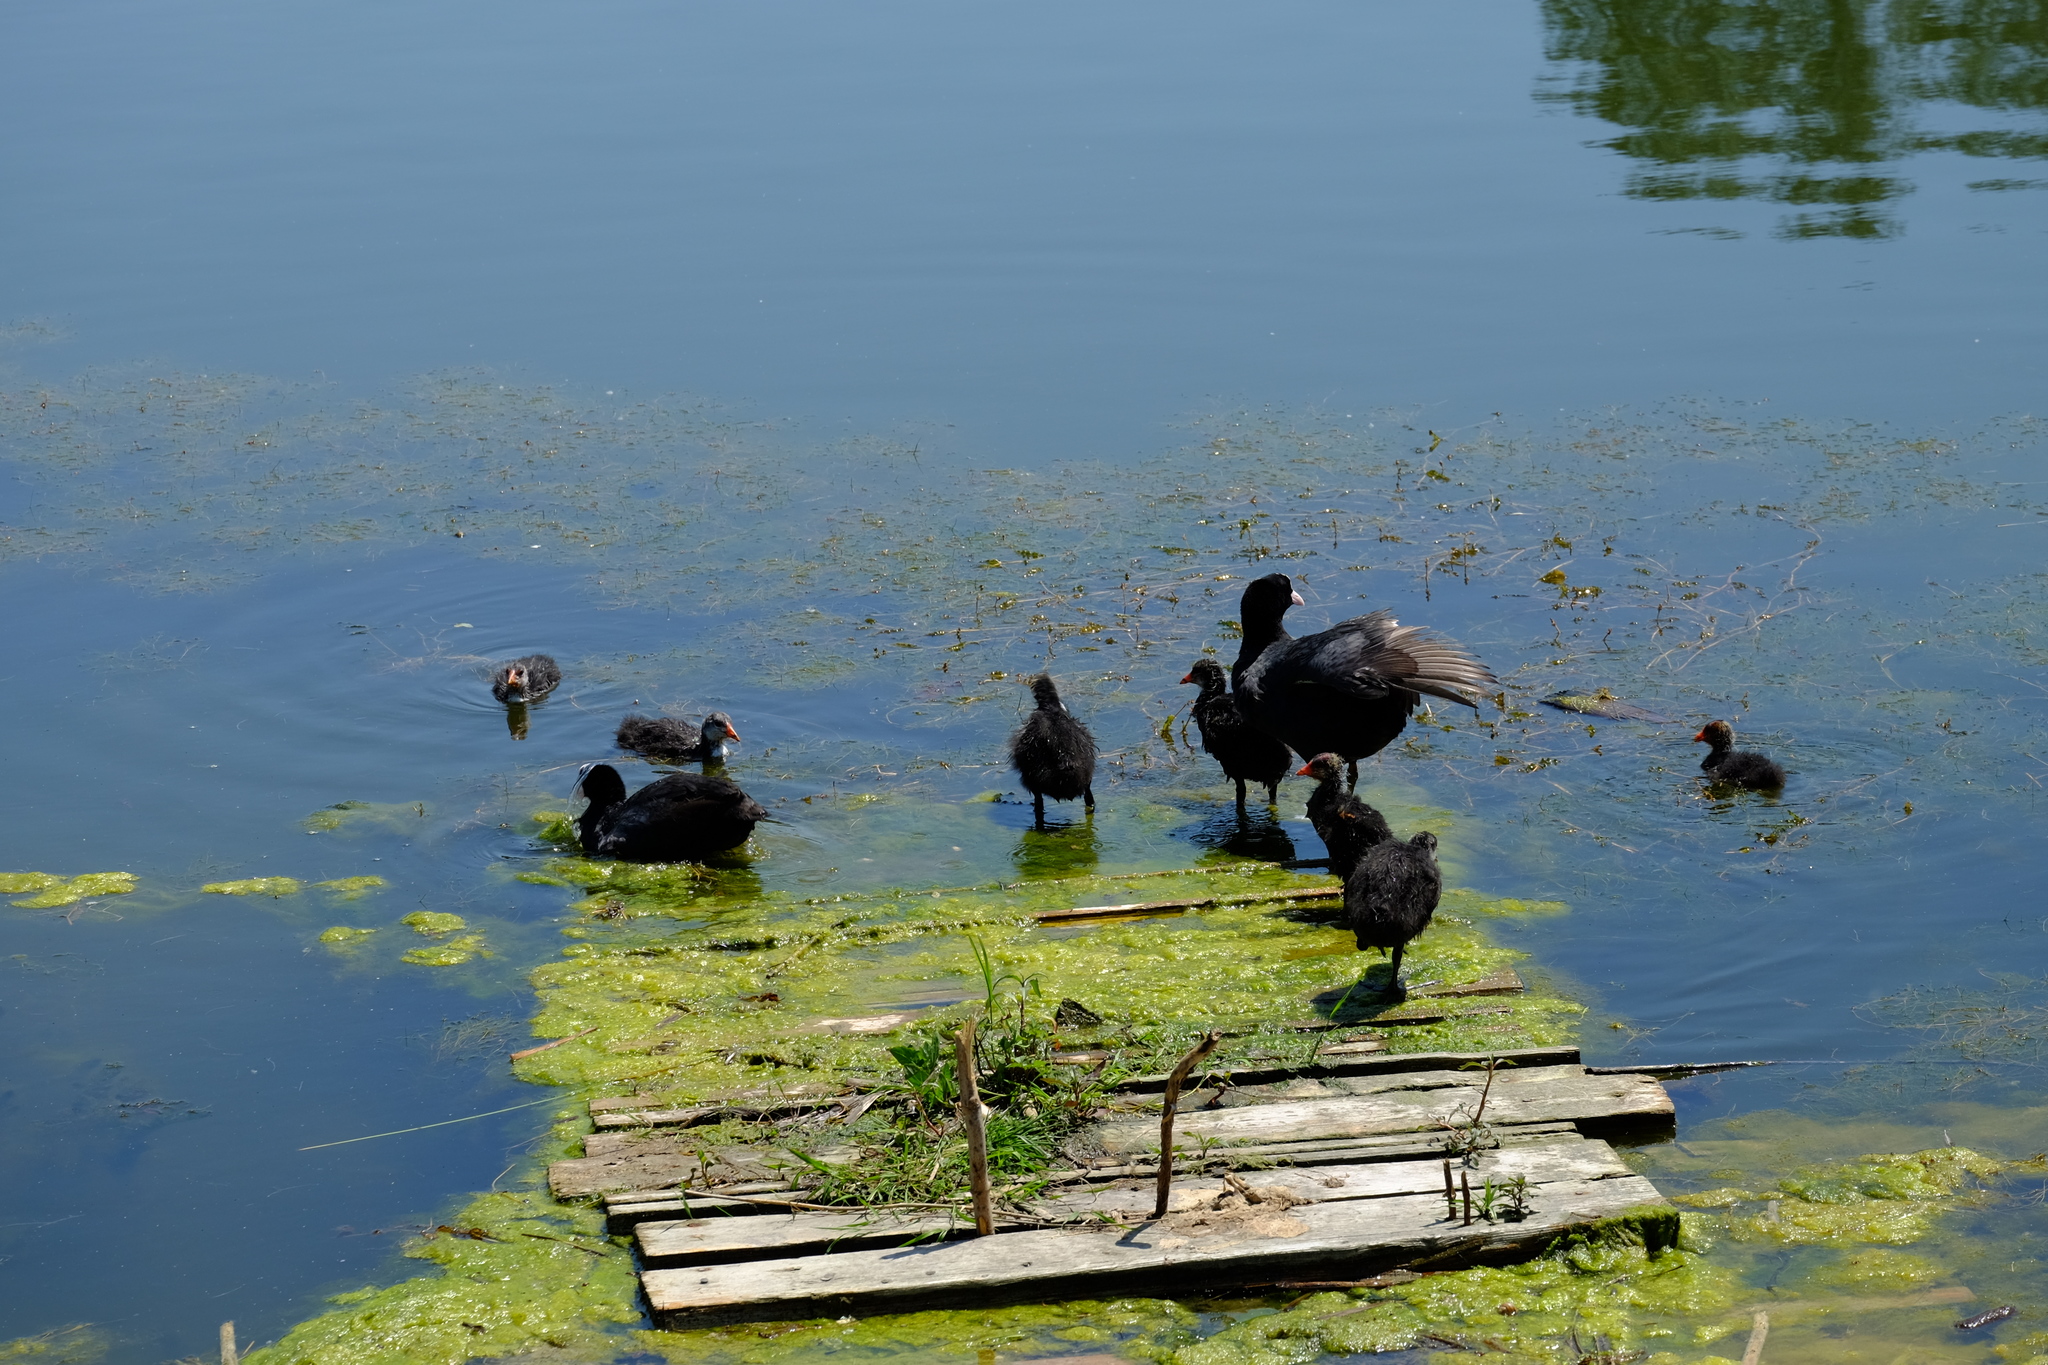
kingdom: Animalia
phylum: Chordata
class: Aves
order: Gruiformes
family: Rallidae
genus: Fulica
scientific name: Fulica atra
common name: Eurasian coot
